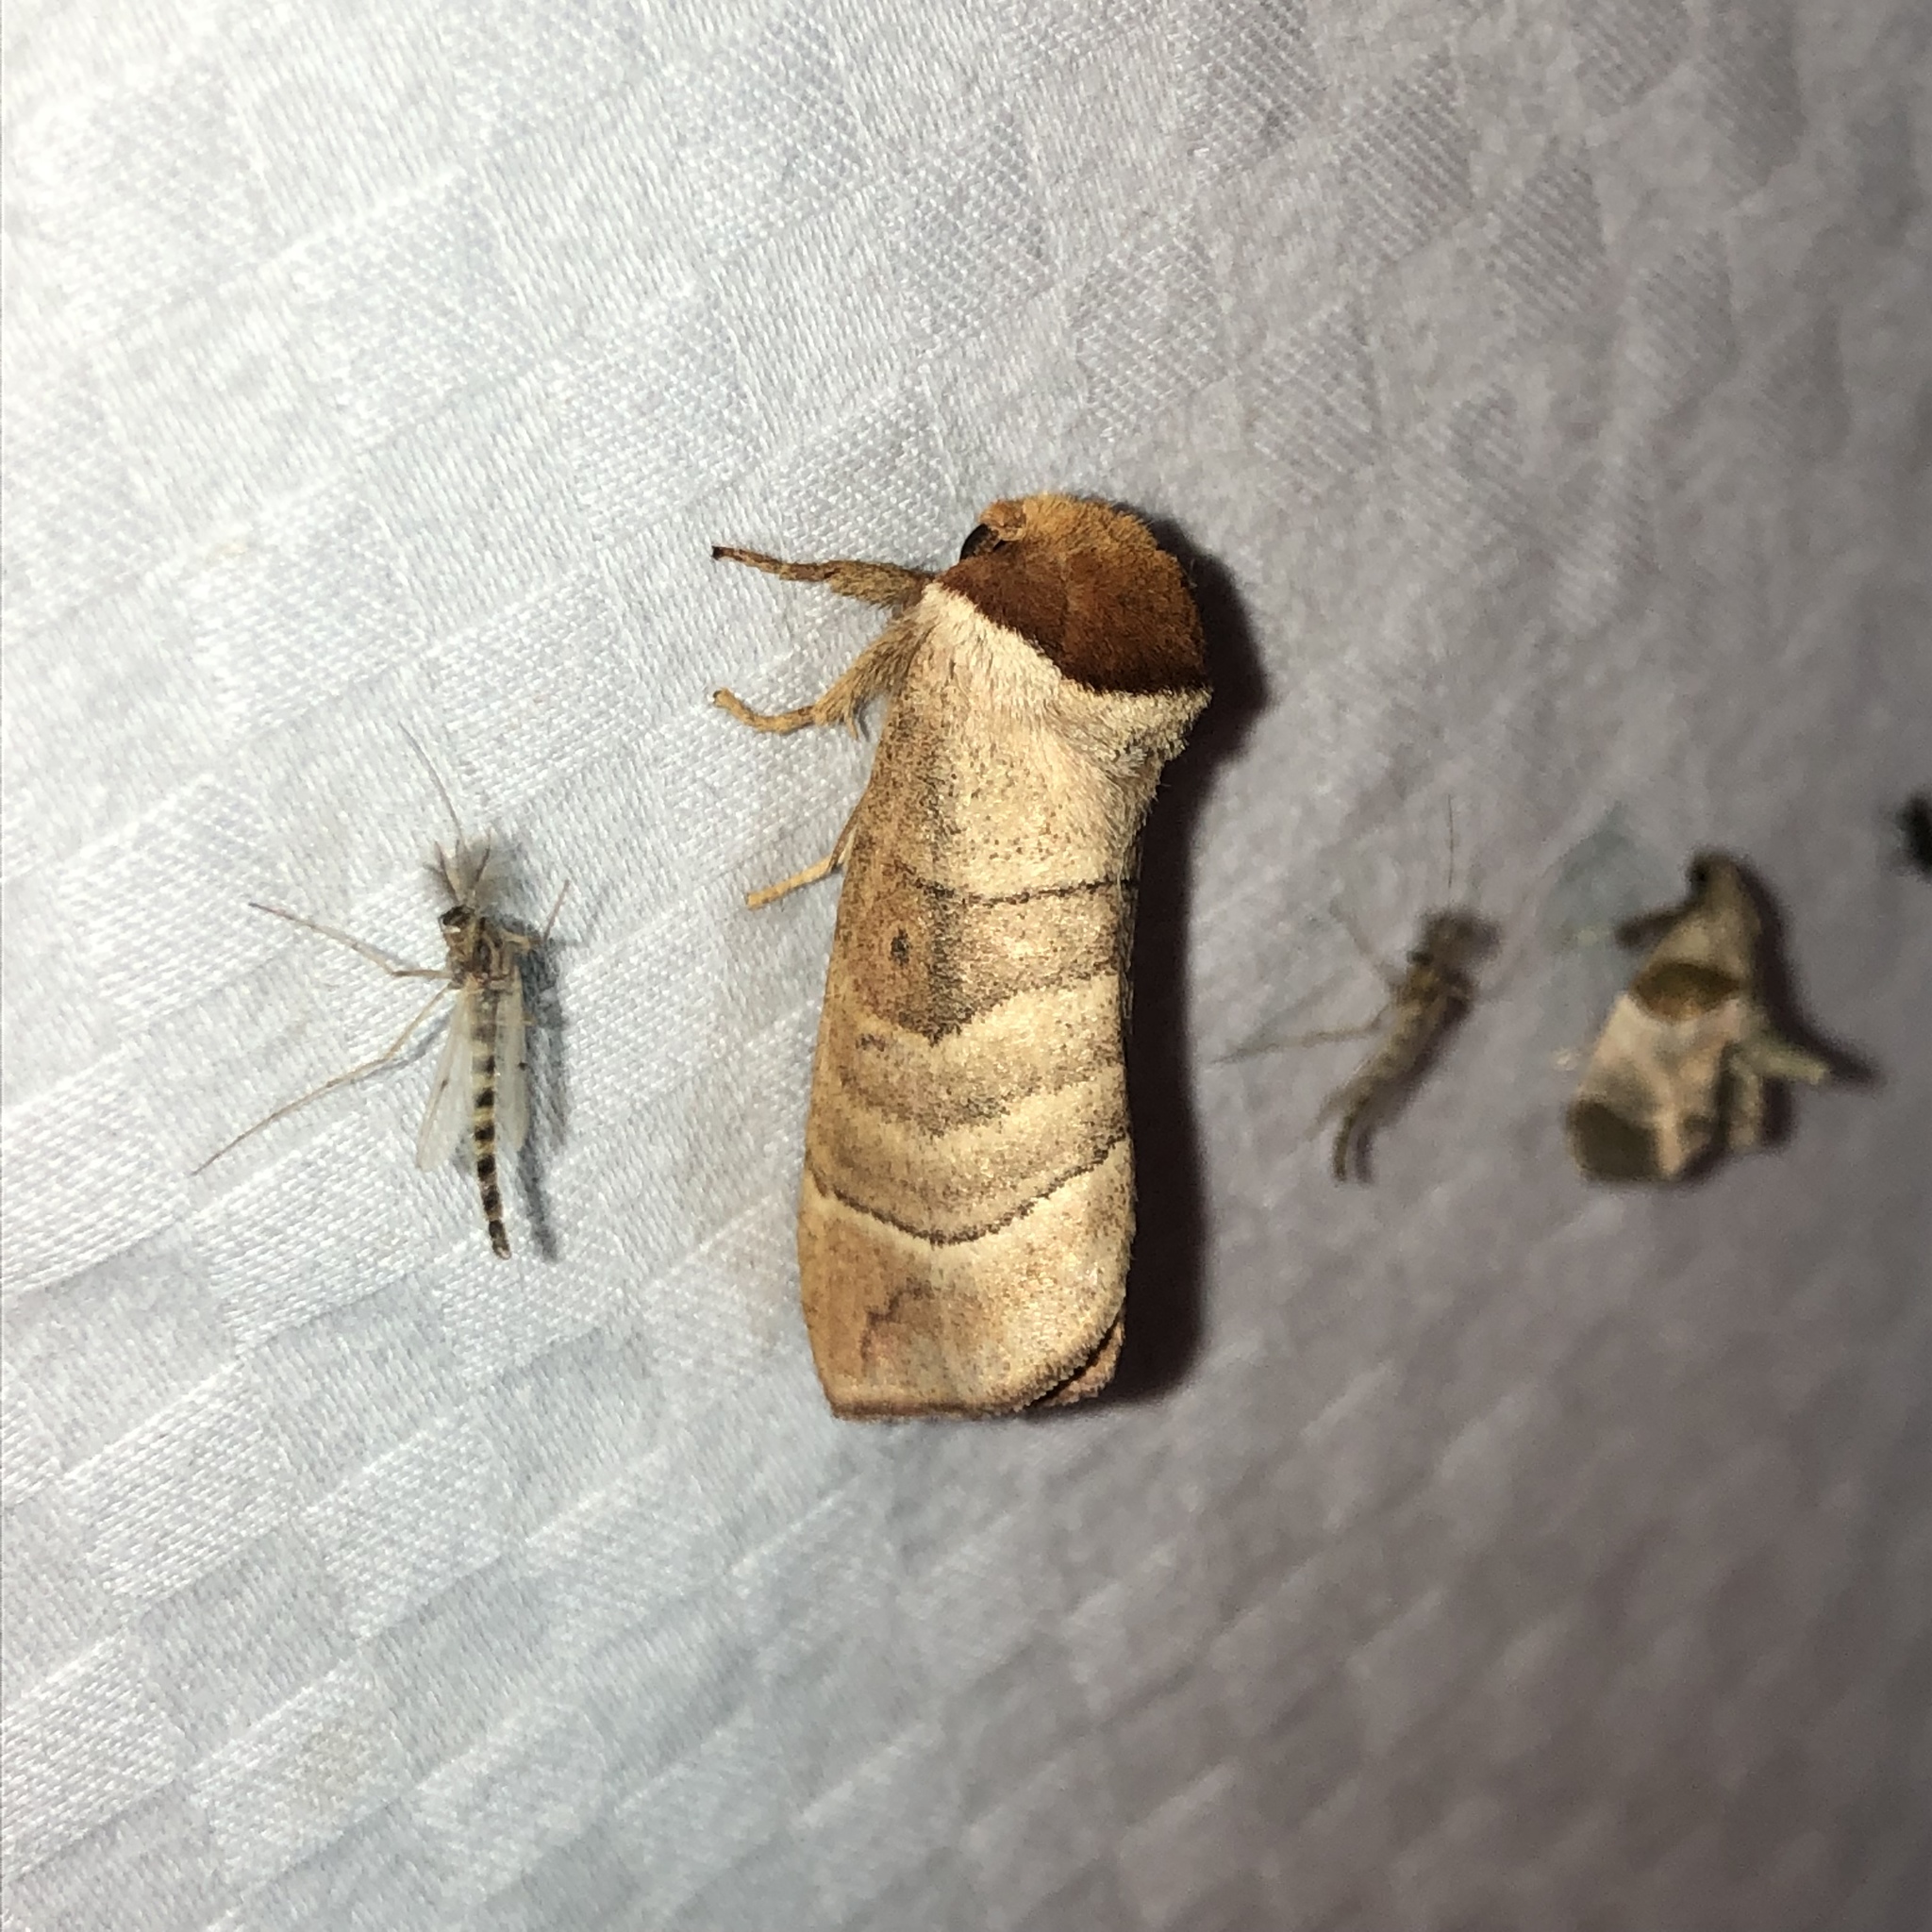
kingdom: Animalia
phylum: Arthropoda
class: Insecta
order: Lepidoptera
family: Notodontidae
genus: Datana
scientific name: Datana integerrima
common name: Walnut caterpillar
